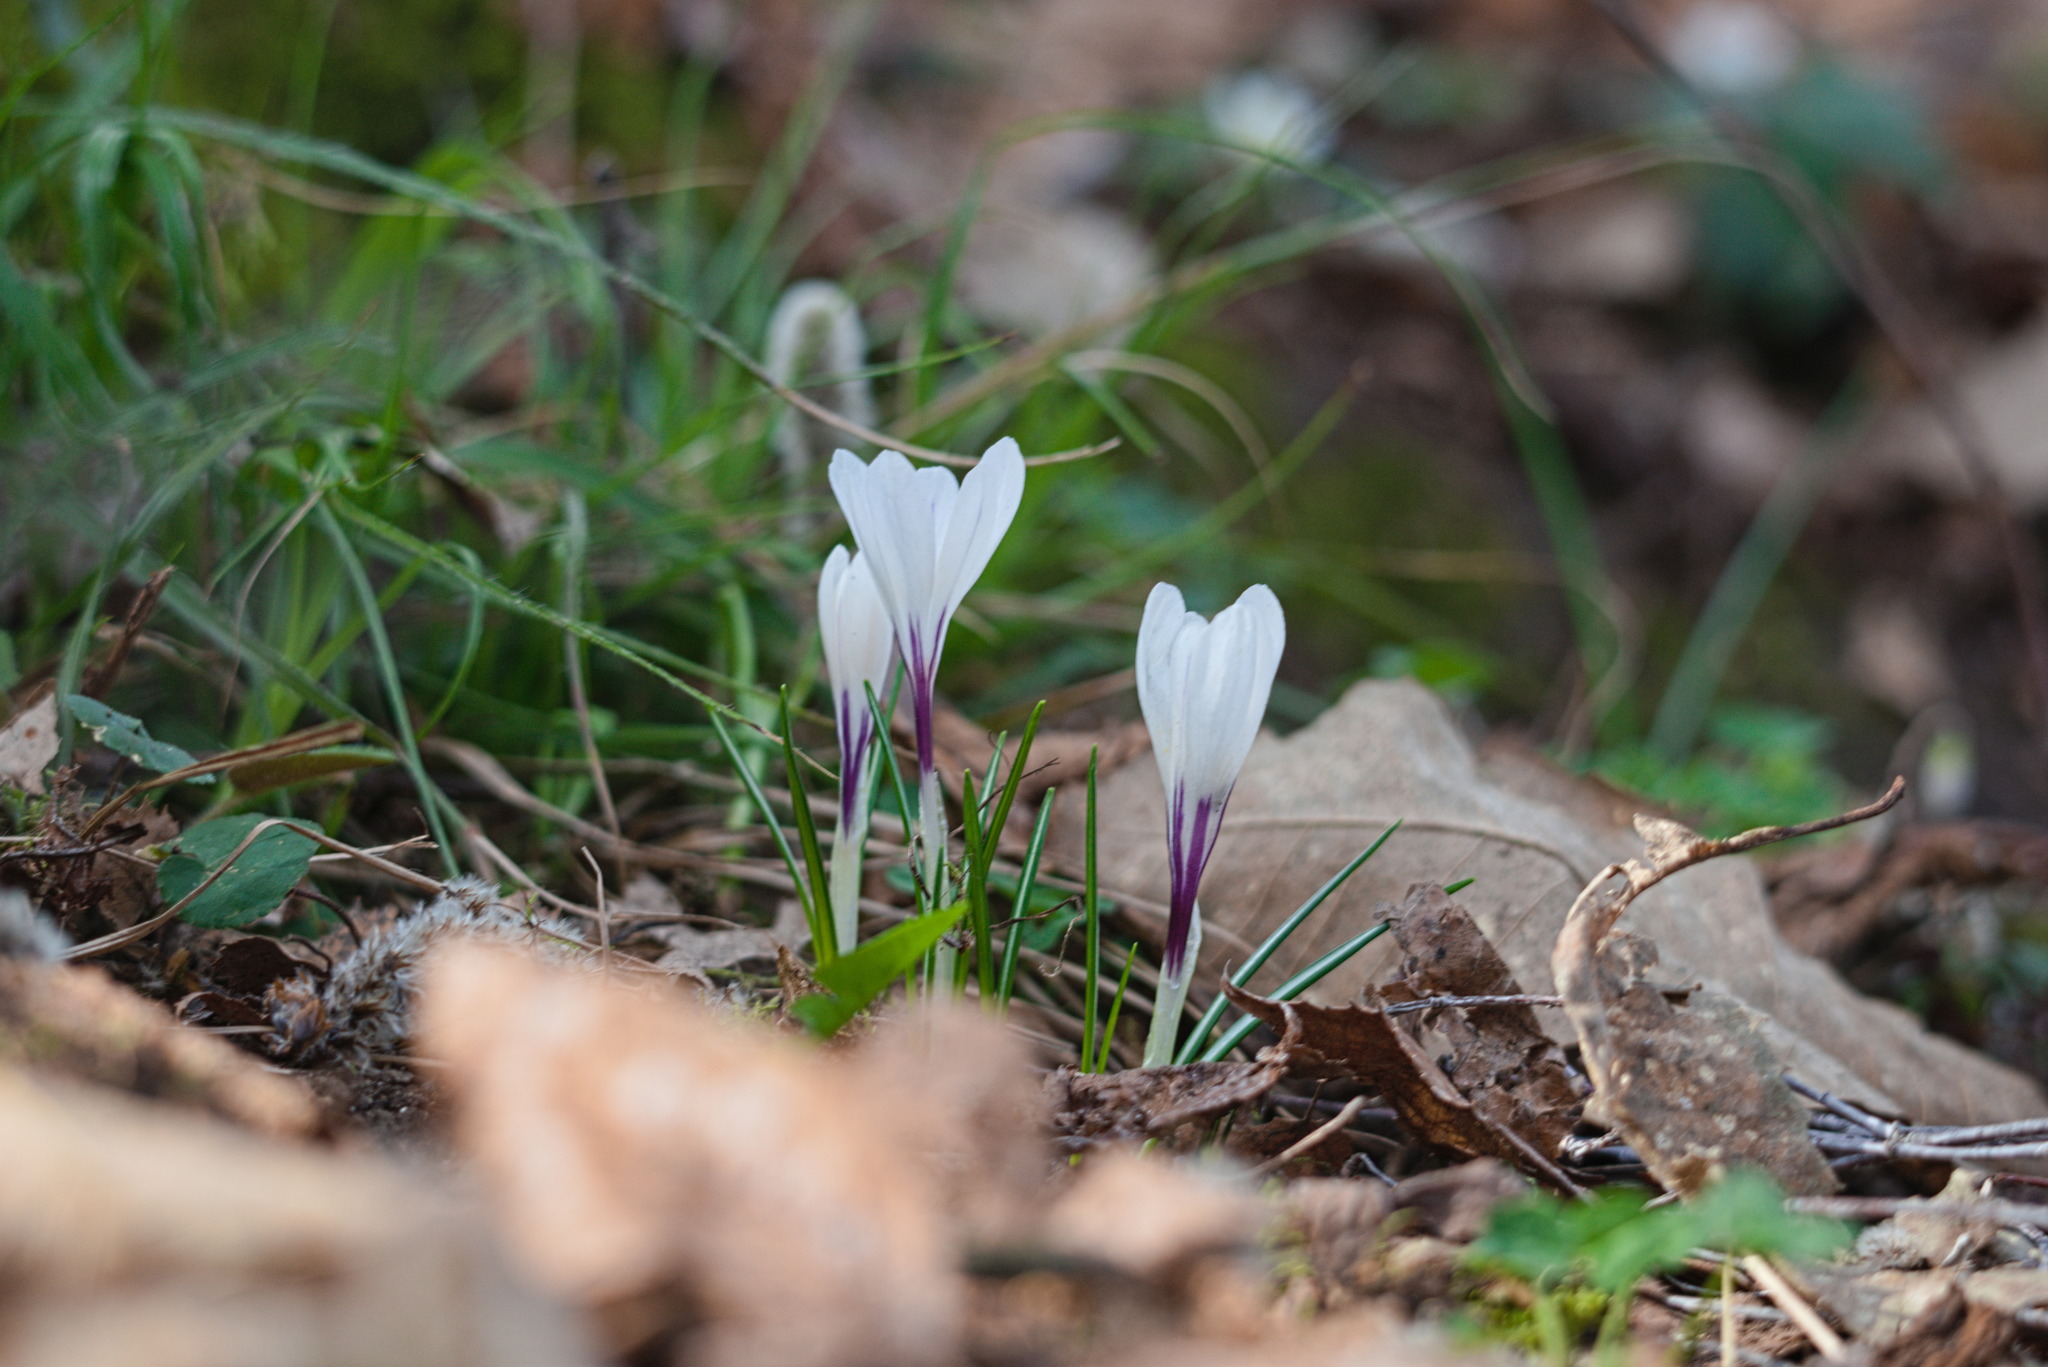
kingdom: Plantae
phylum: Tracheophyta
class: Liliopsida
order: Asparagales
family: Iridaceae
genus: Crocus
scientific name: Crocus vernus
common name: Spring crocus
